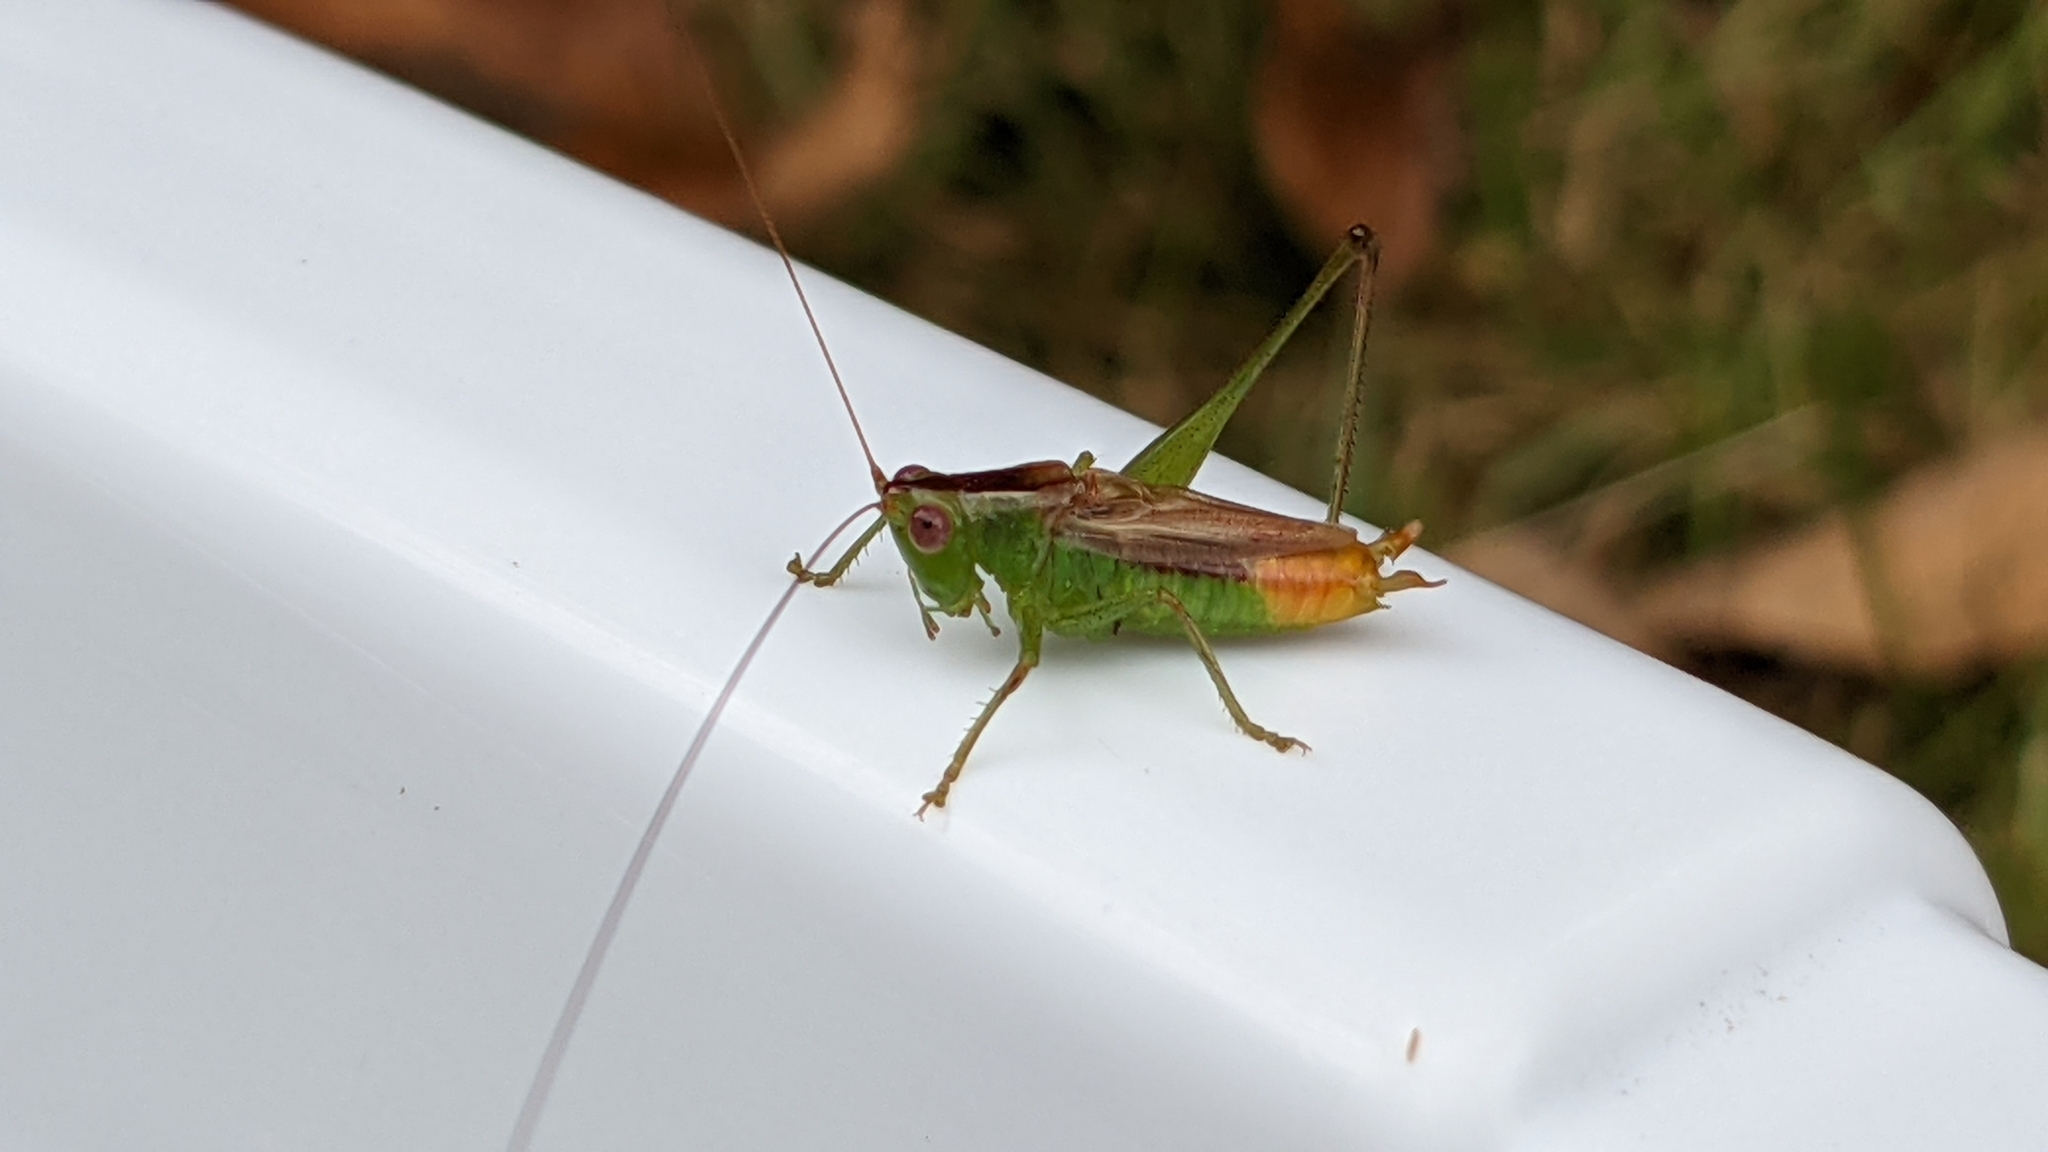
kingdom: Animalia
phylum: Arthropoda
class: Insecta
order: Orthoptera
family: Tettigoniidae
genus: Conocephalus
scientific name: Conocephalus brevipennis
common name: Short-winged meadow katydid
